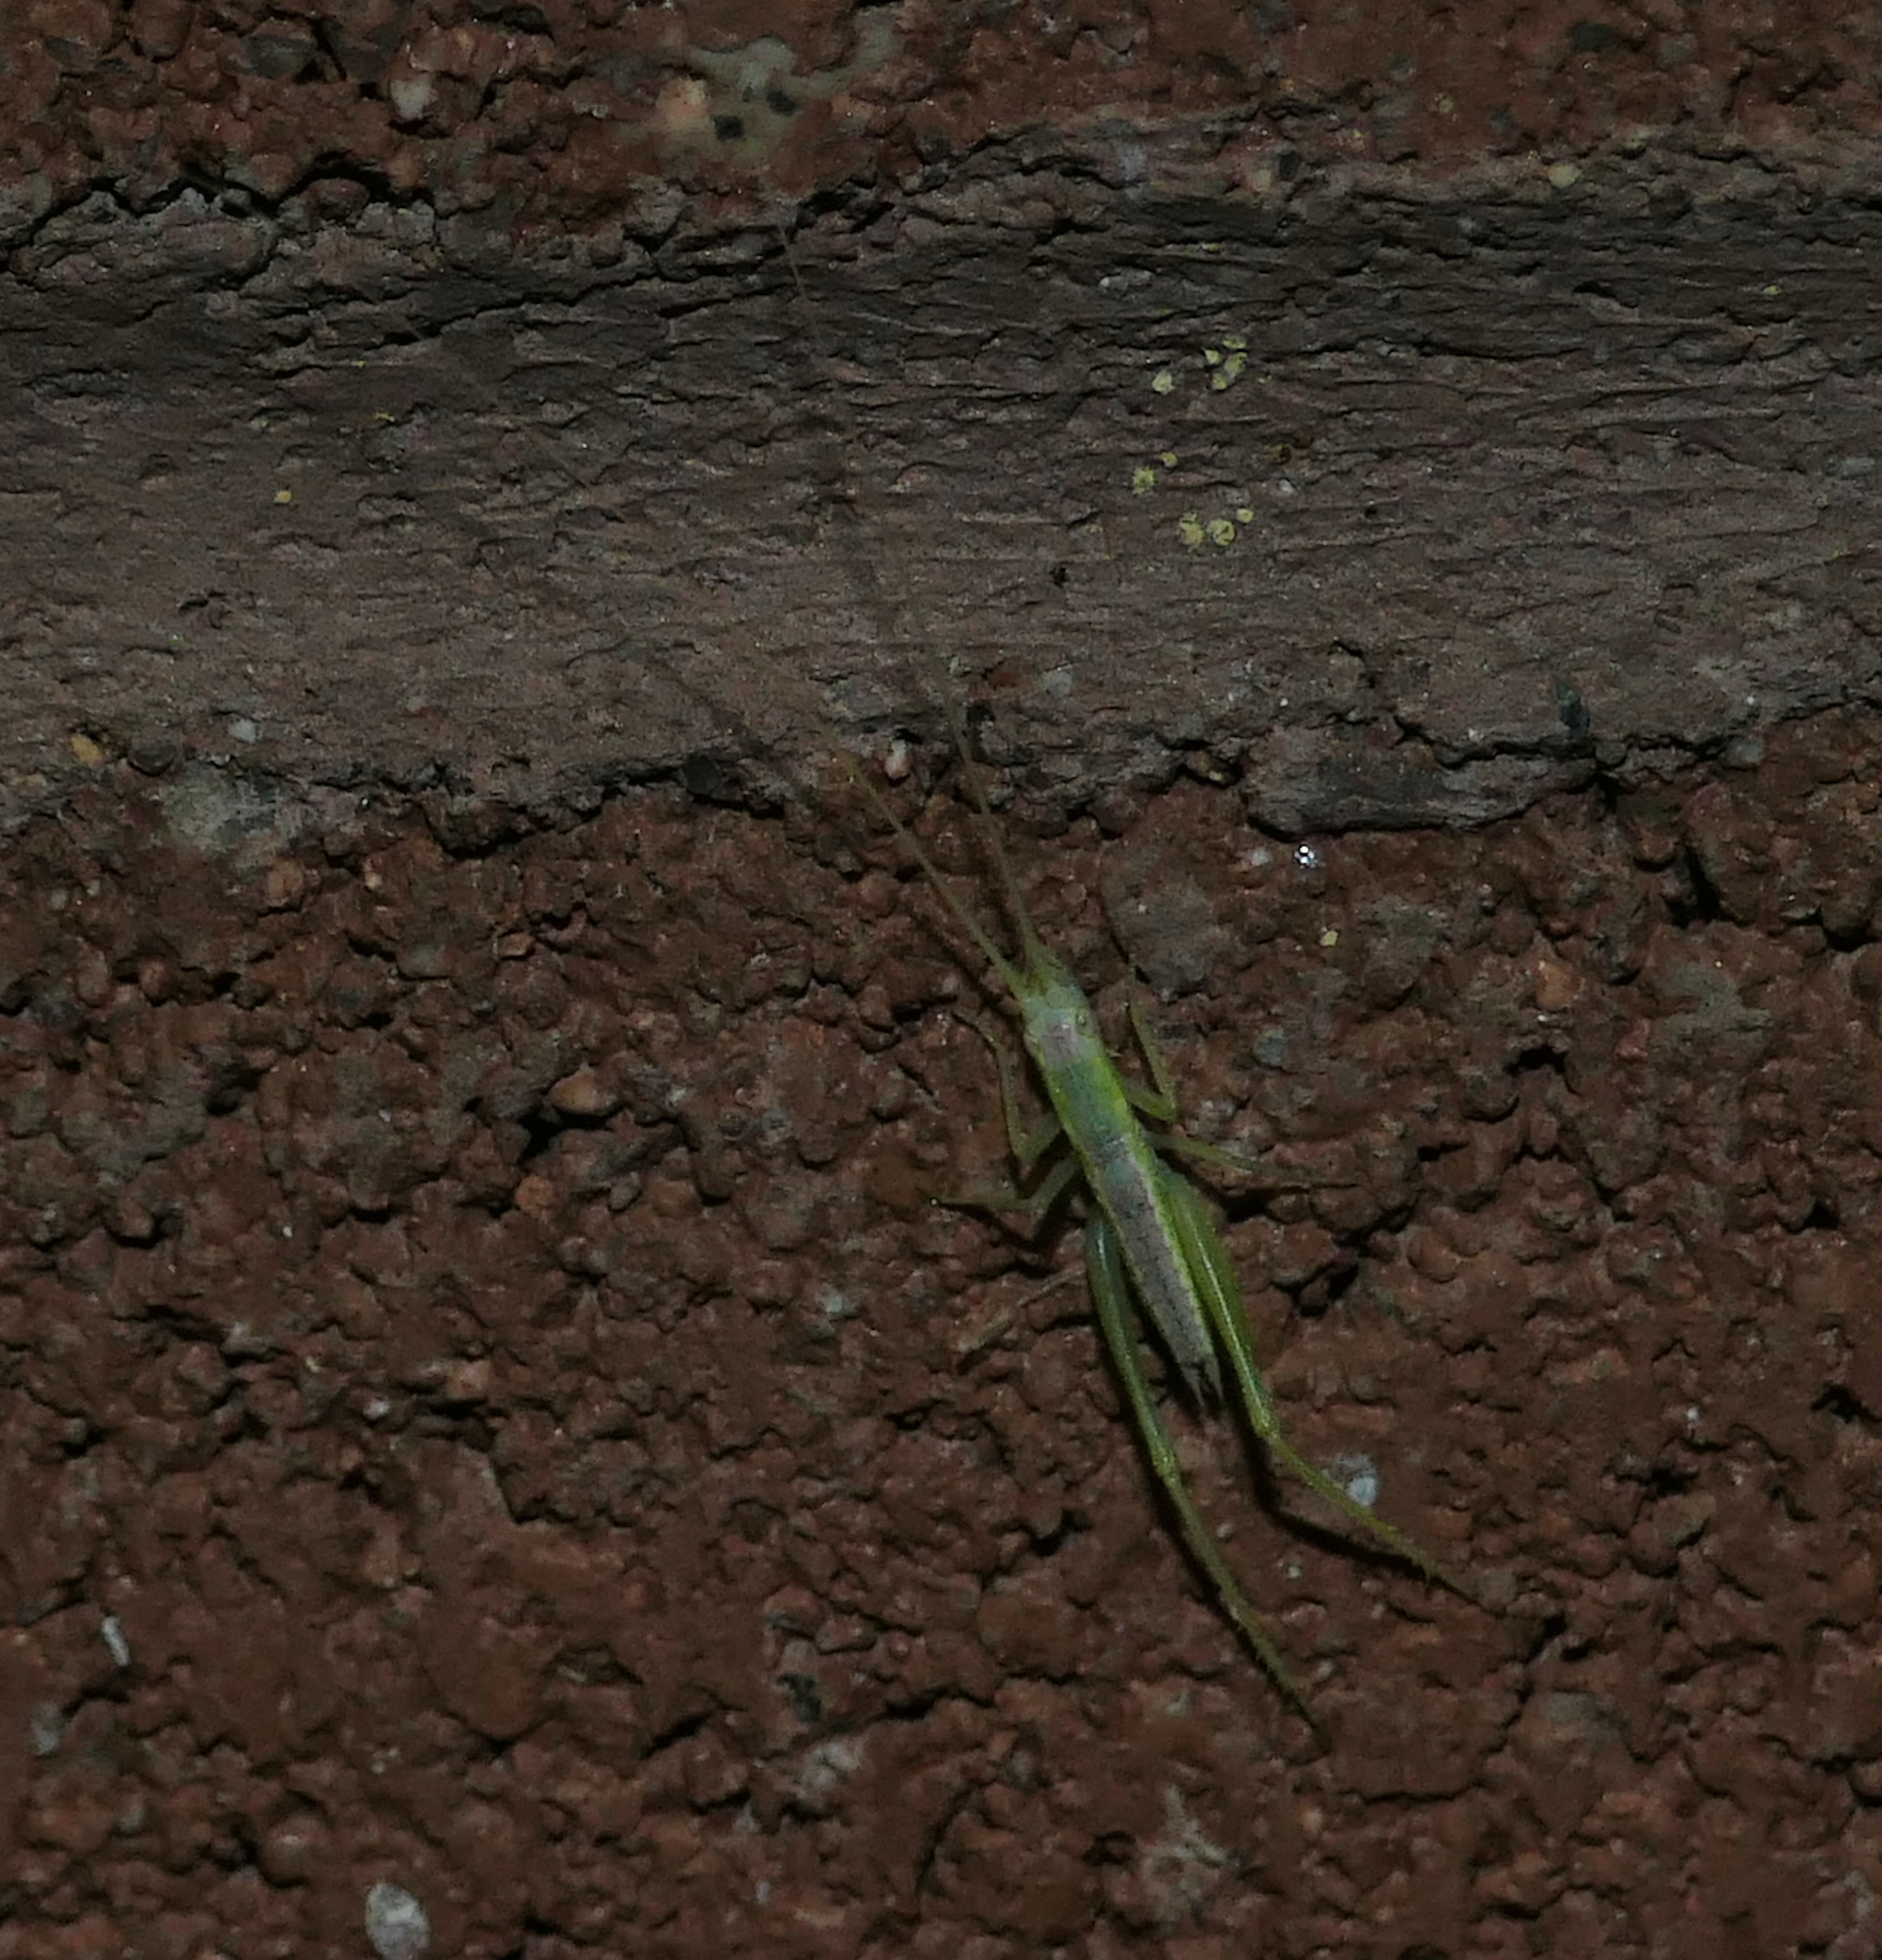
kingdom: Animalia
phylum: Arthropoda
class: Insecta
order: Orthoptera
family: Gryllidae
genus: Oecanthus
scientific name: Oecanthus
